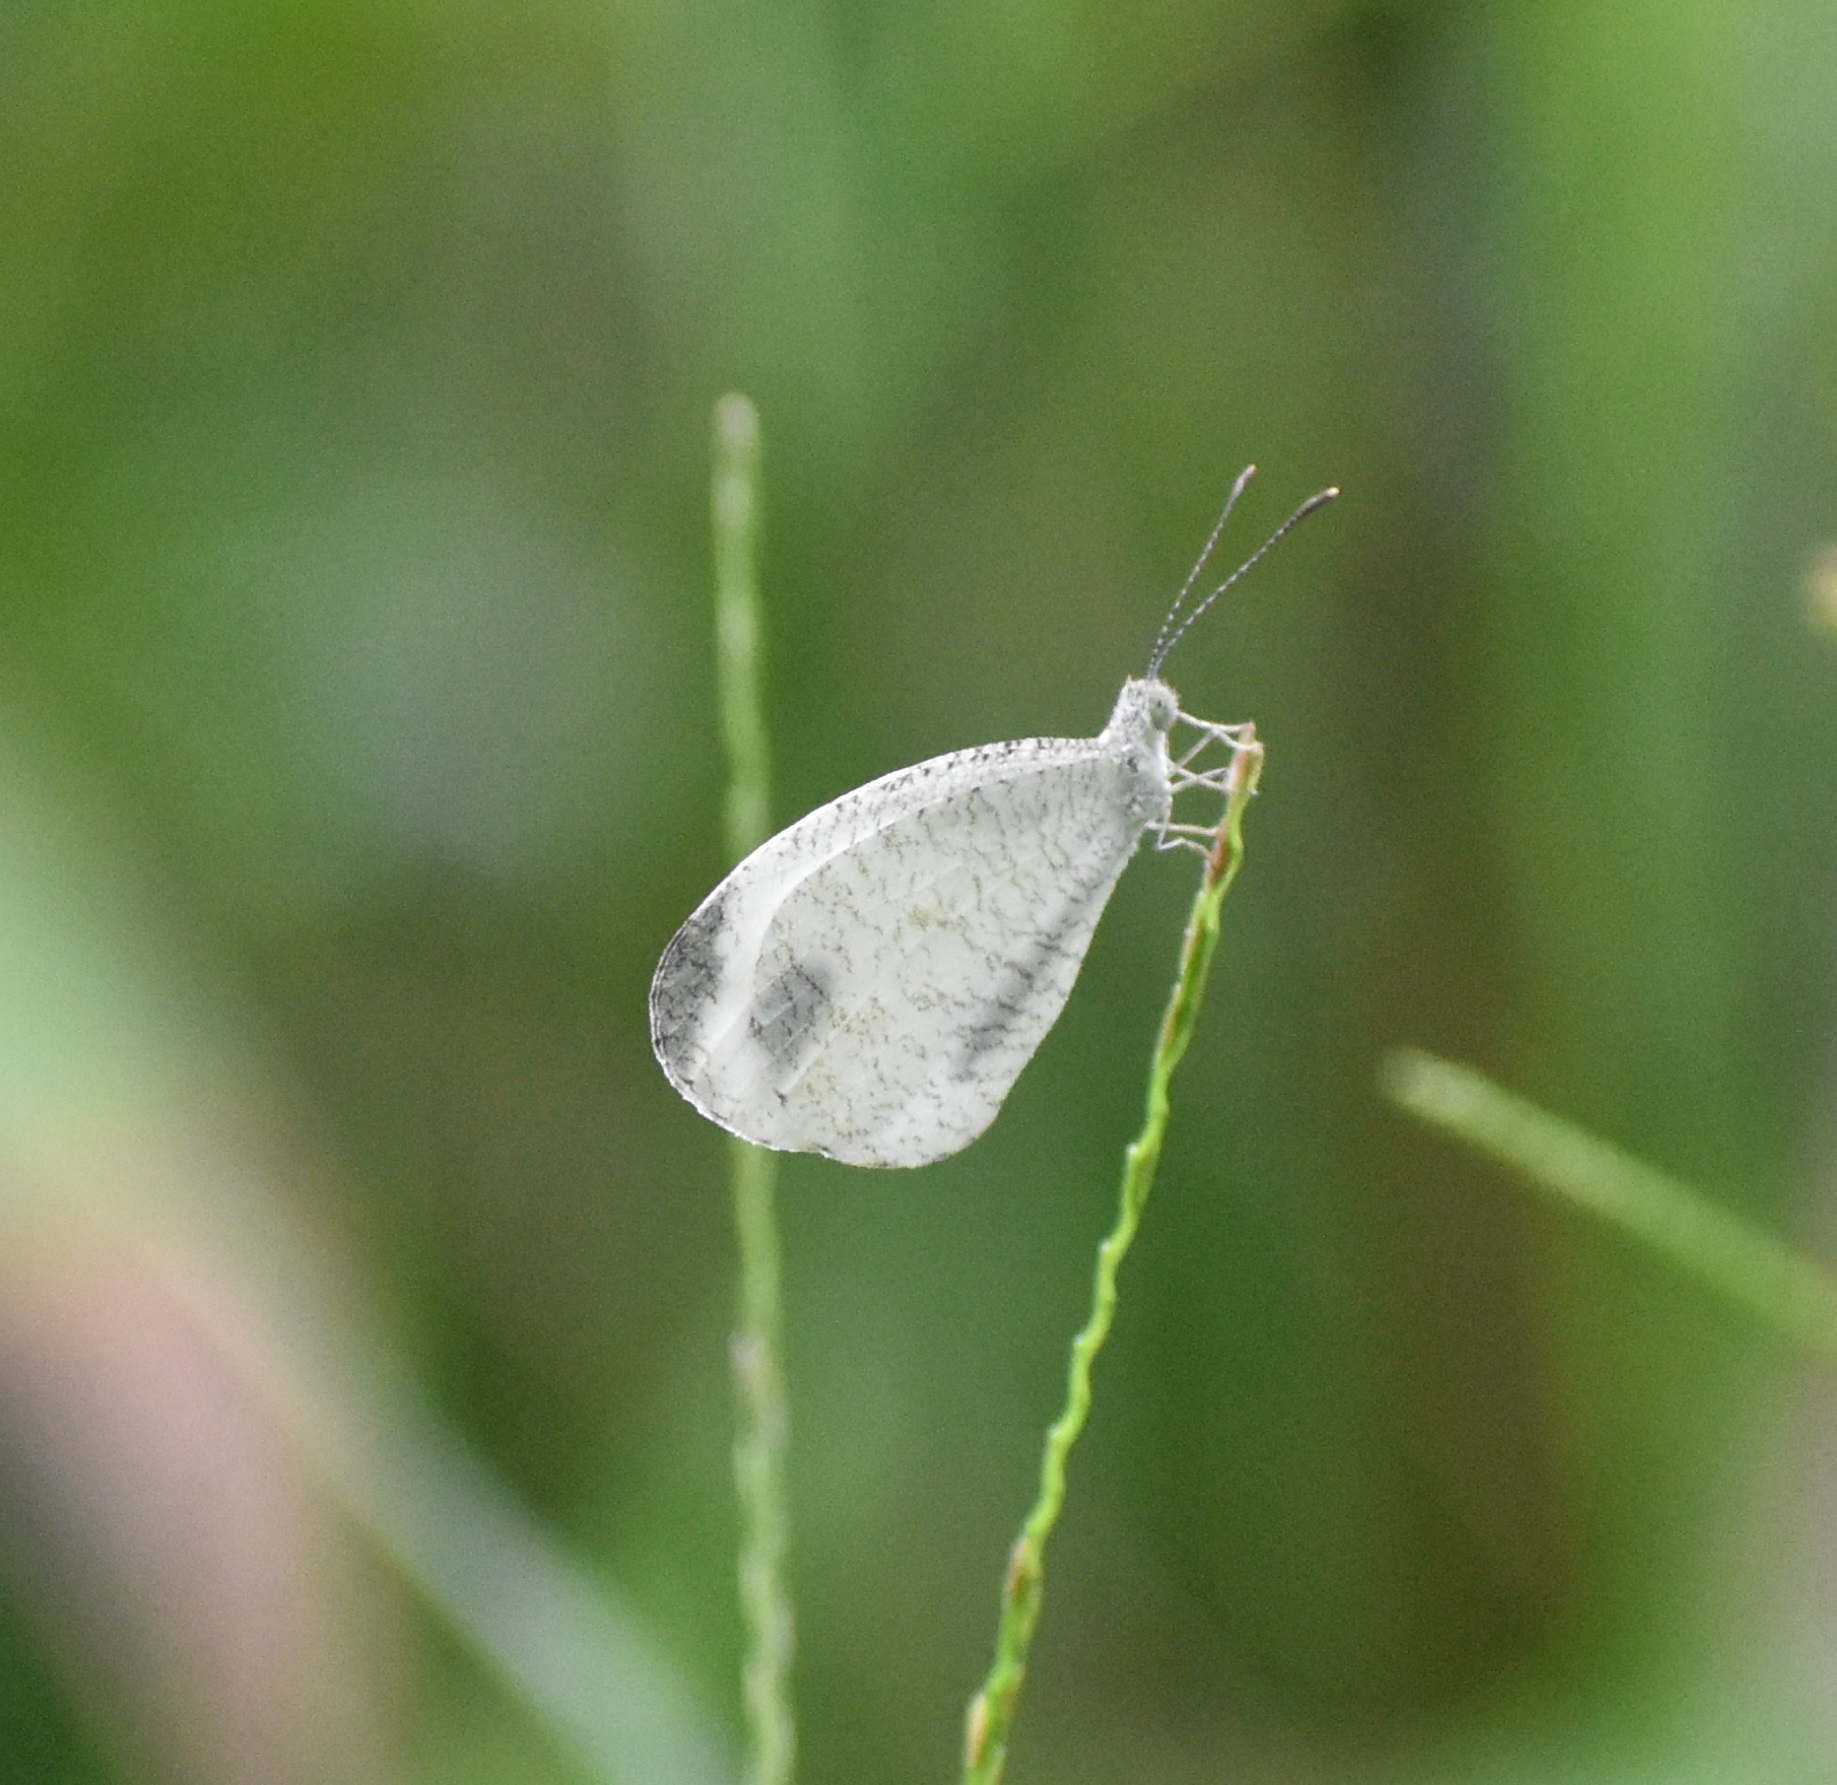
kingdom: Animalia
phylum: Arthropoda
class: Insecta
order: Lepidoptera
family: Pieridae
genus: Leptosia
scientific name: Leptosia nina
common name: Psyche
